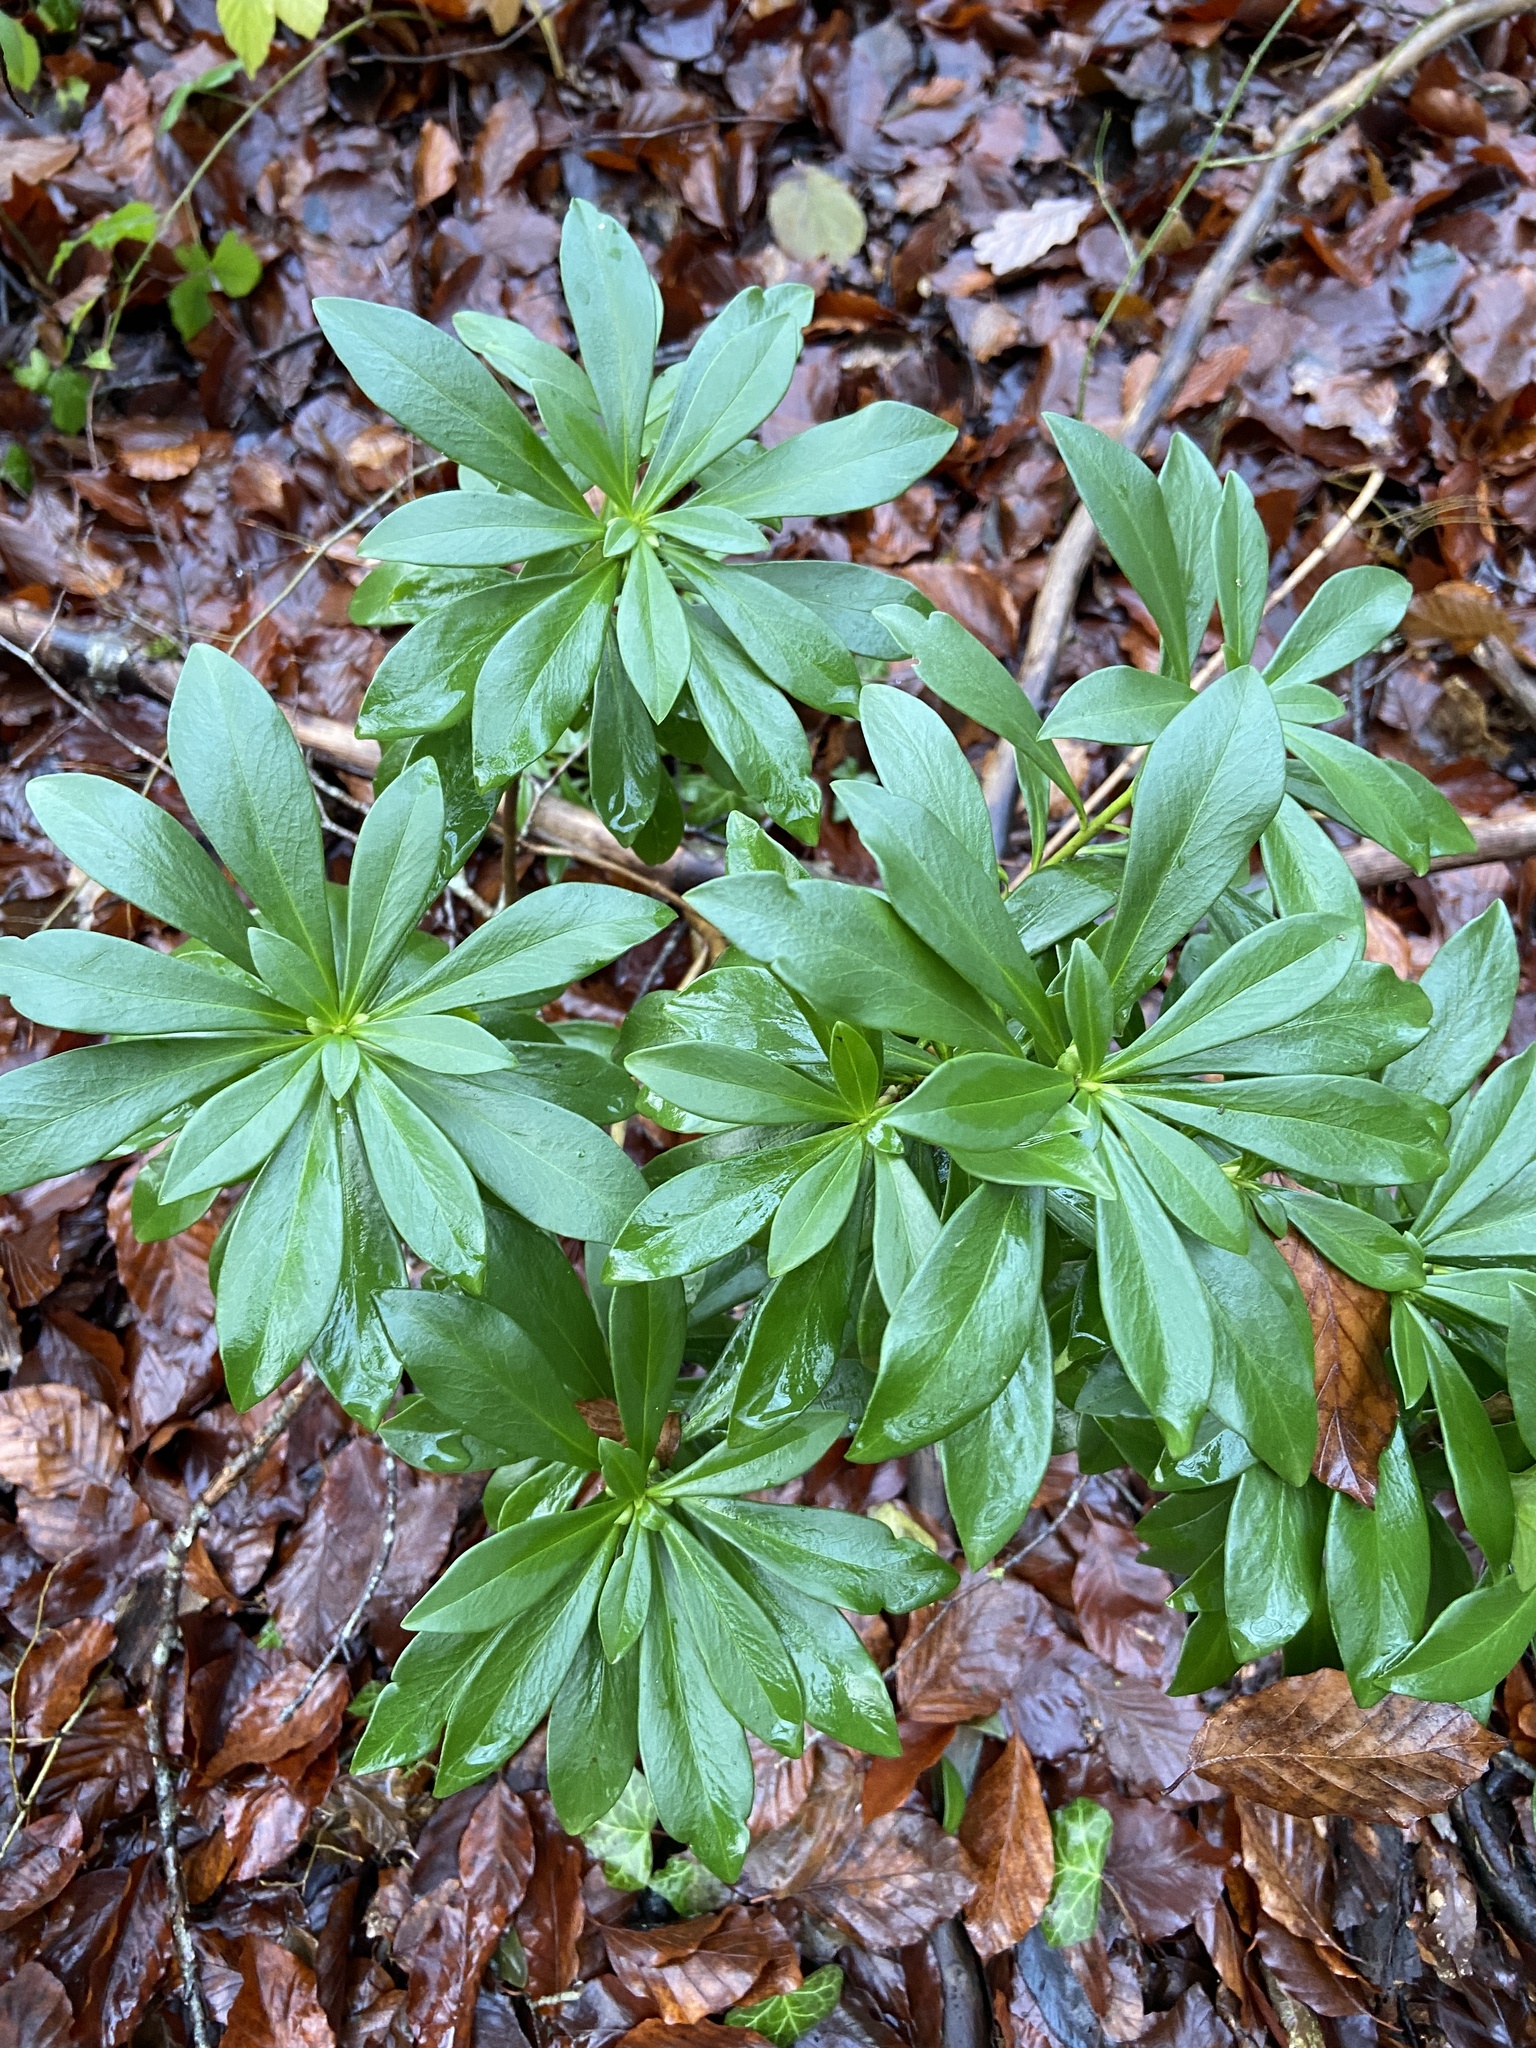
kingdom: Plantae
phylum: Tracheophyta
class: Magnoliopsida
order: Malvales
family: Thymelaeaceae
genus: Daphne
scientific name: Daphne laureola
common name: Spurge-laurel
